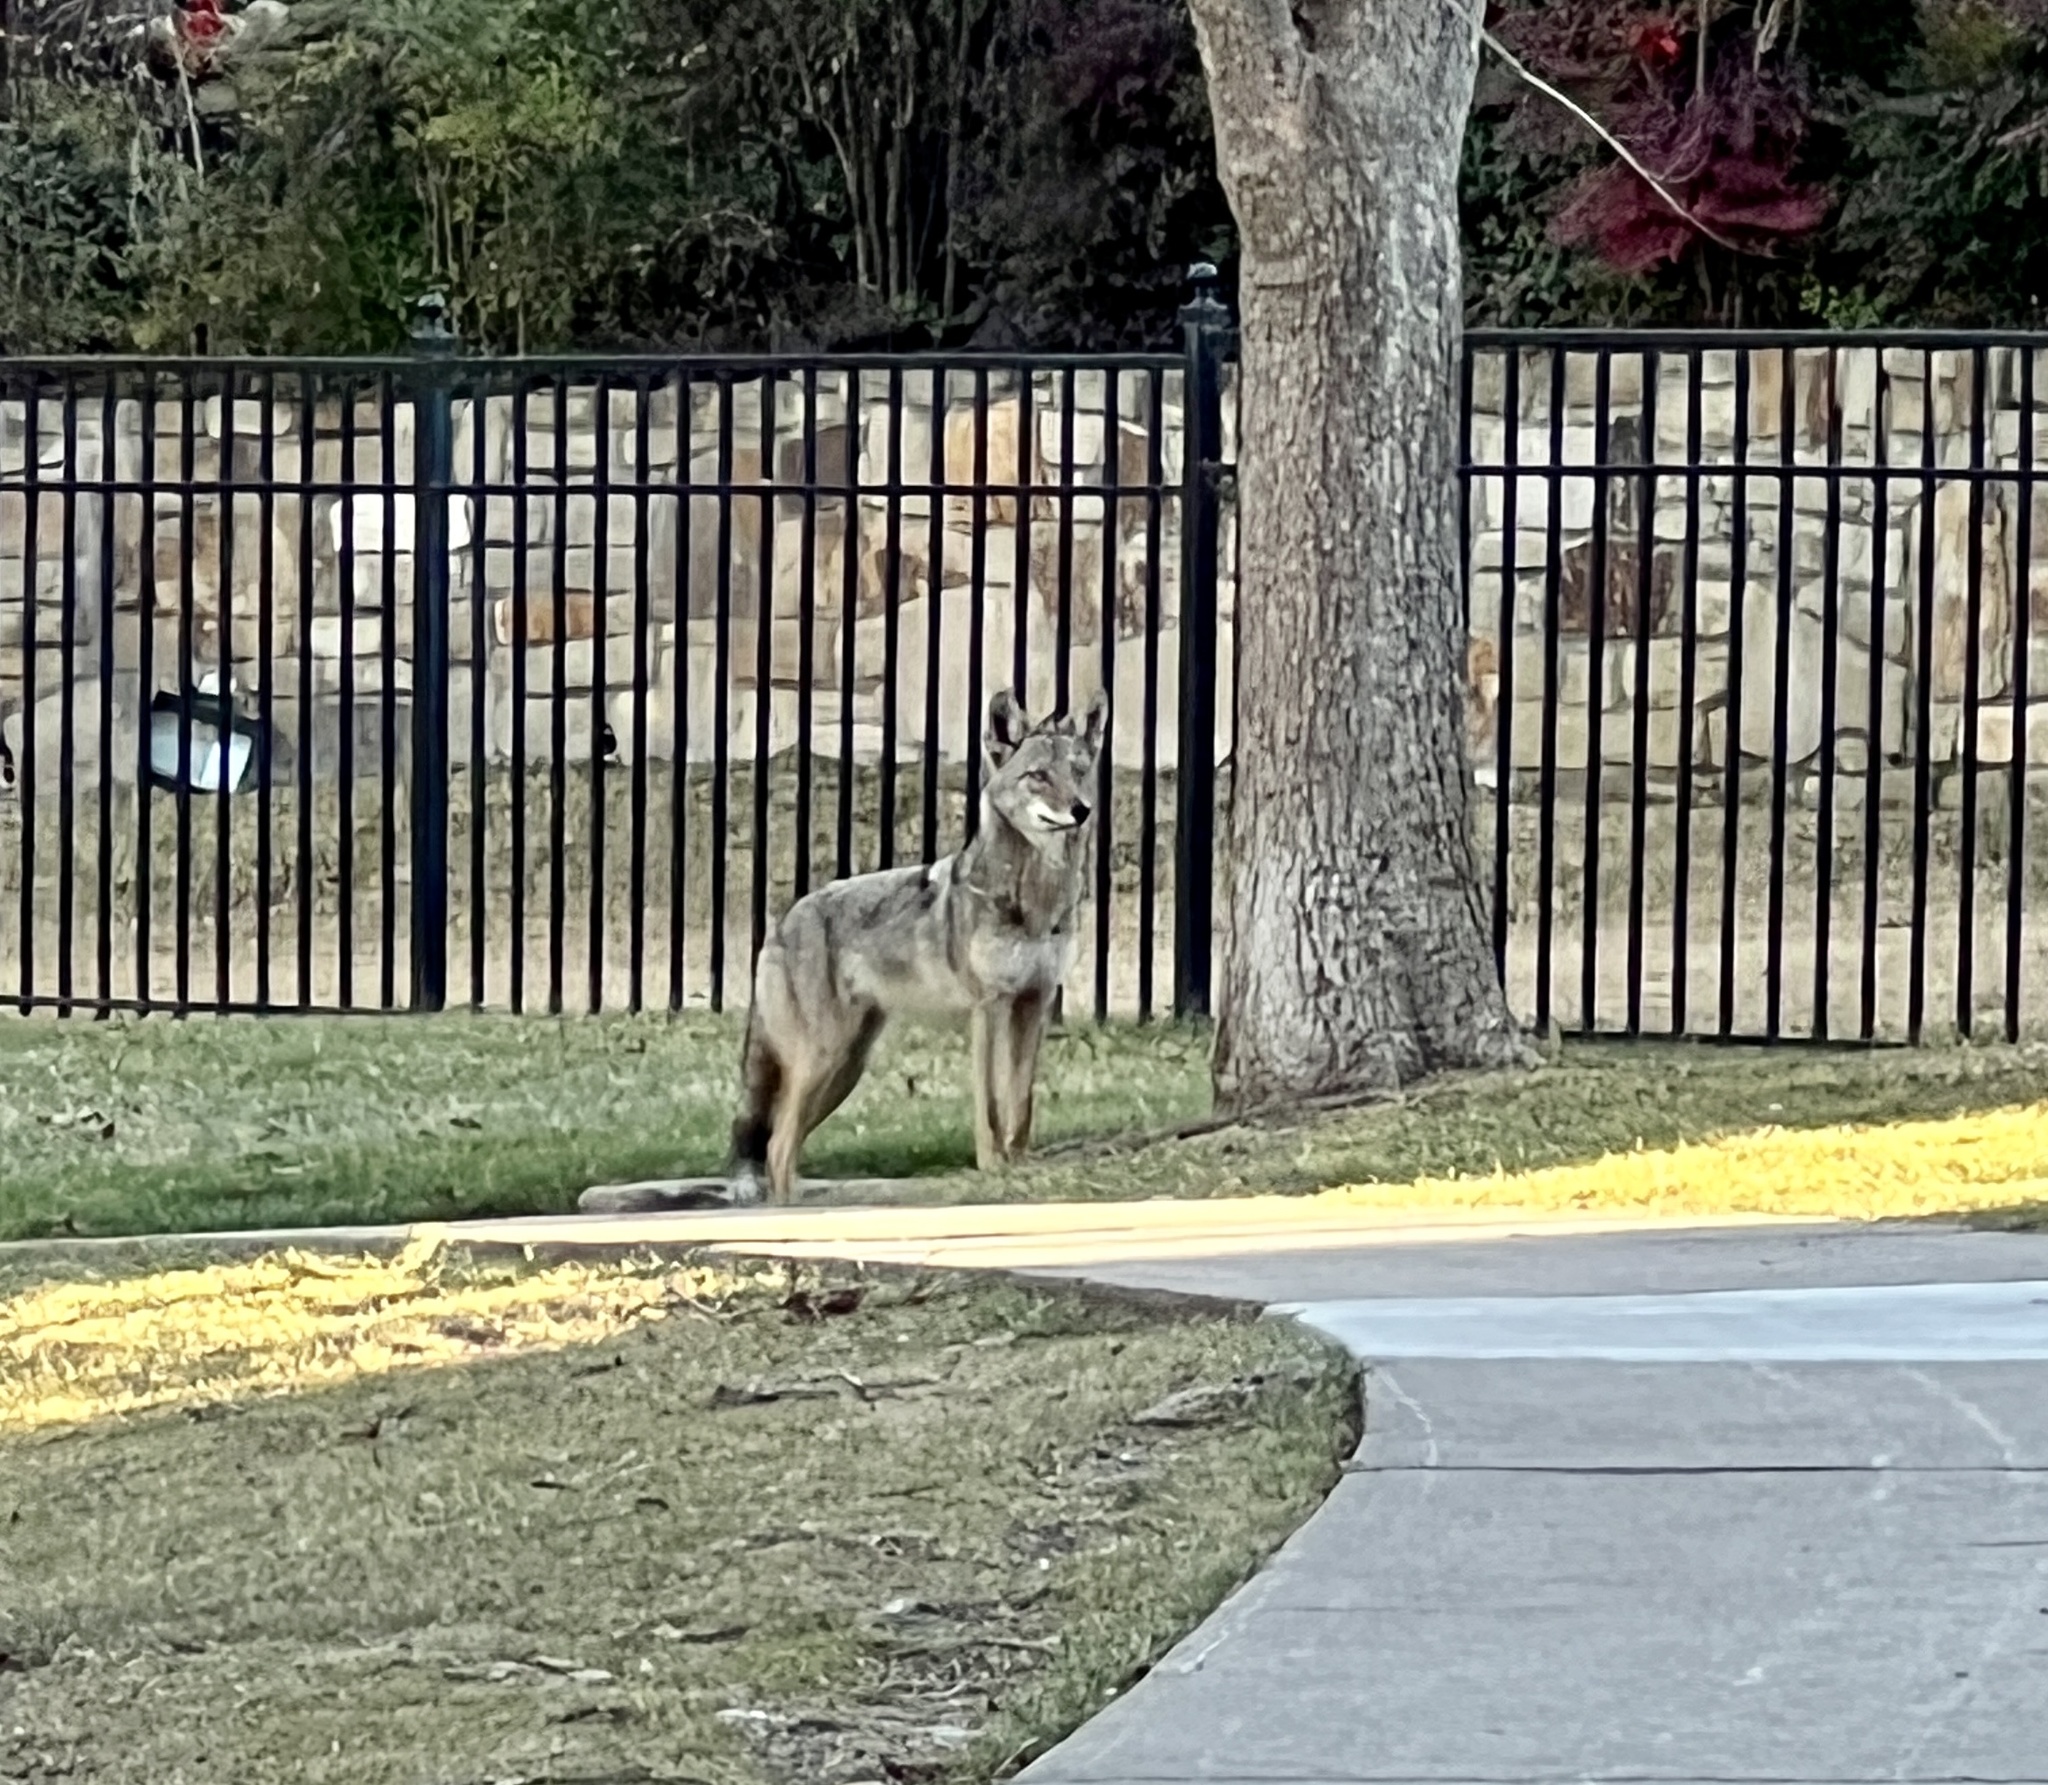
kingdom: Animalia
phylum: Chordata
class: Mammalia
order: Carnivora
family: Canidae
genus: Canis
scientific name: Canis latrans
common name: Coyote
